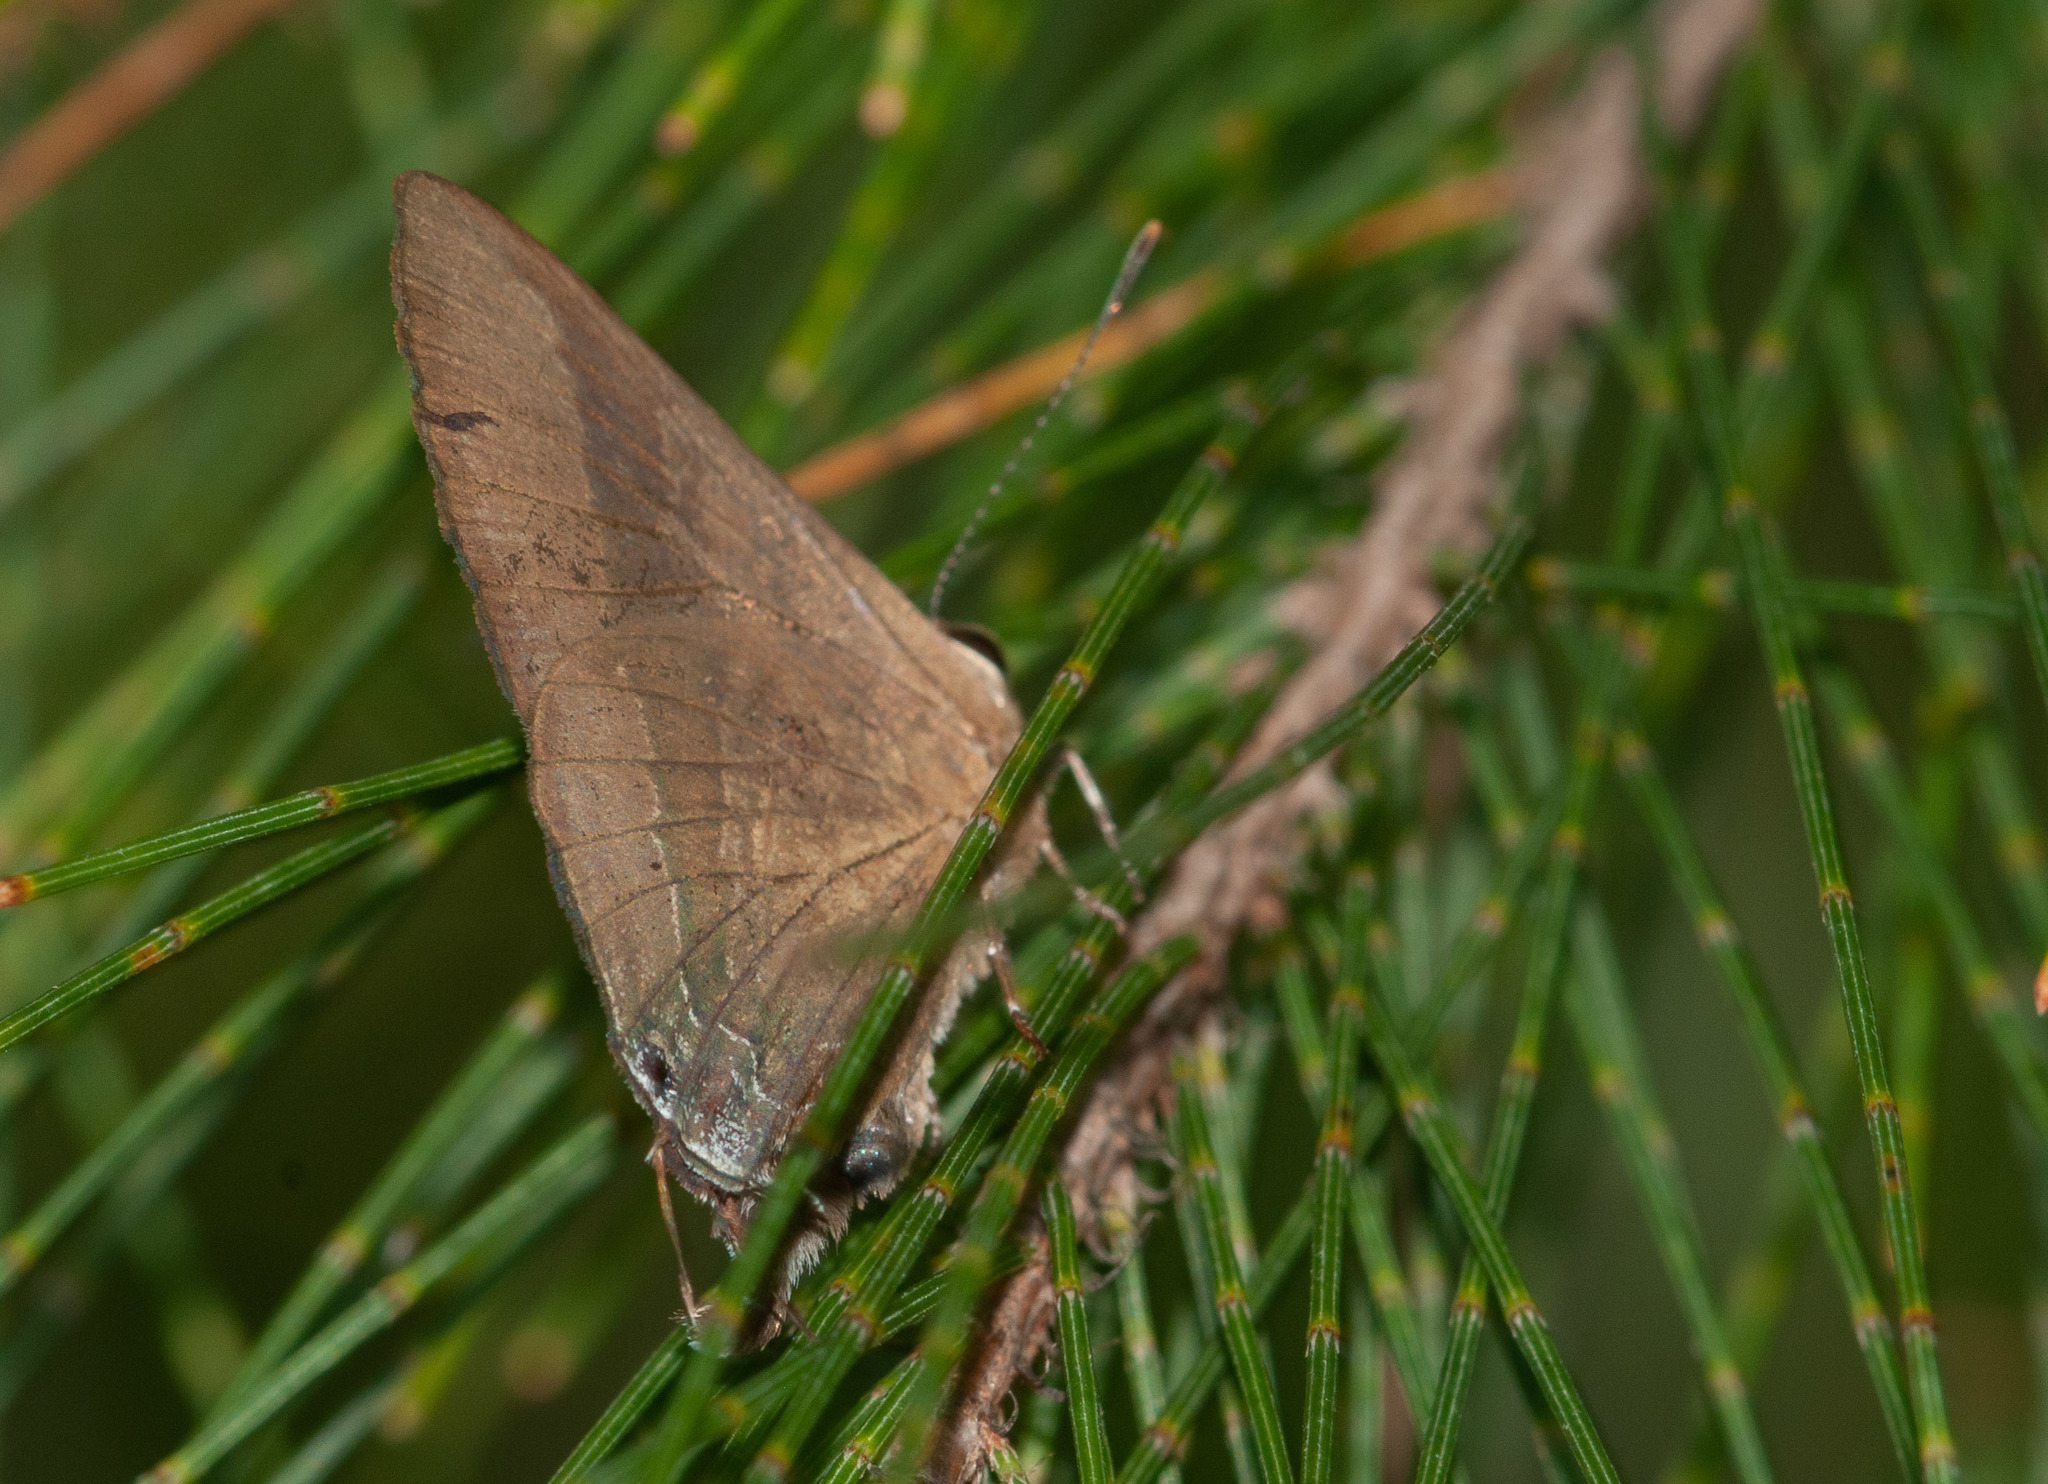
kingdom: Animalia
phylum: Arthropoda
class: Insecta
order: Lepidoptera
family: Lycaenidae
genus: Rapala
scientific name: Rapala varuna
